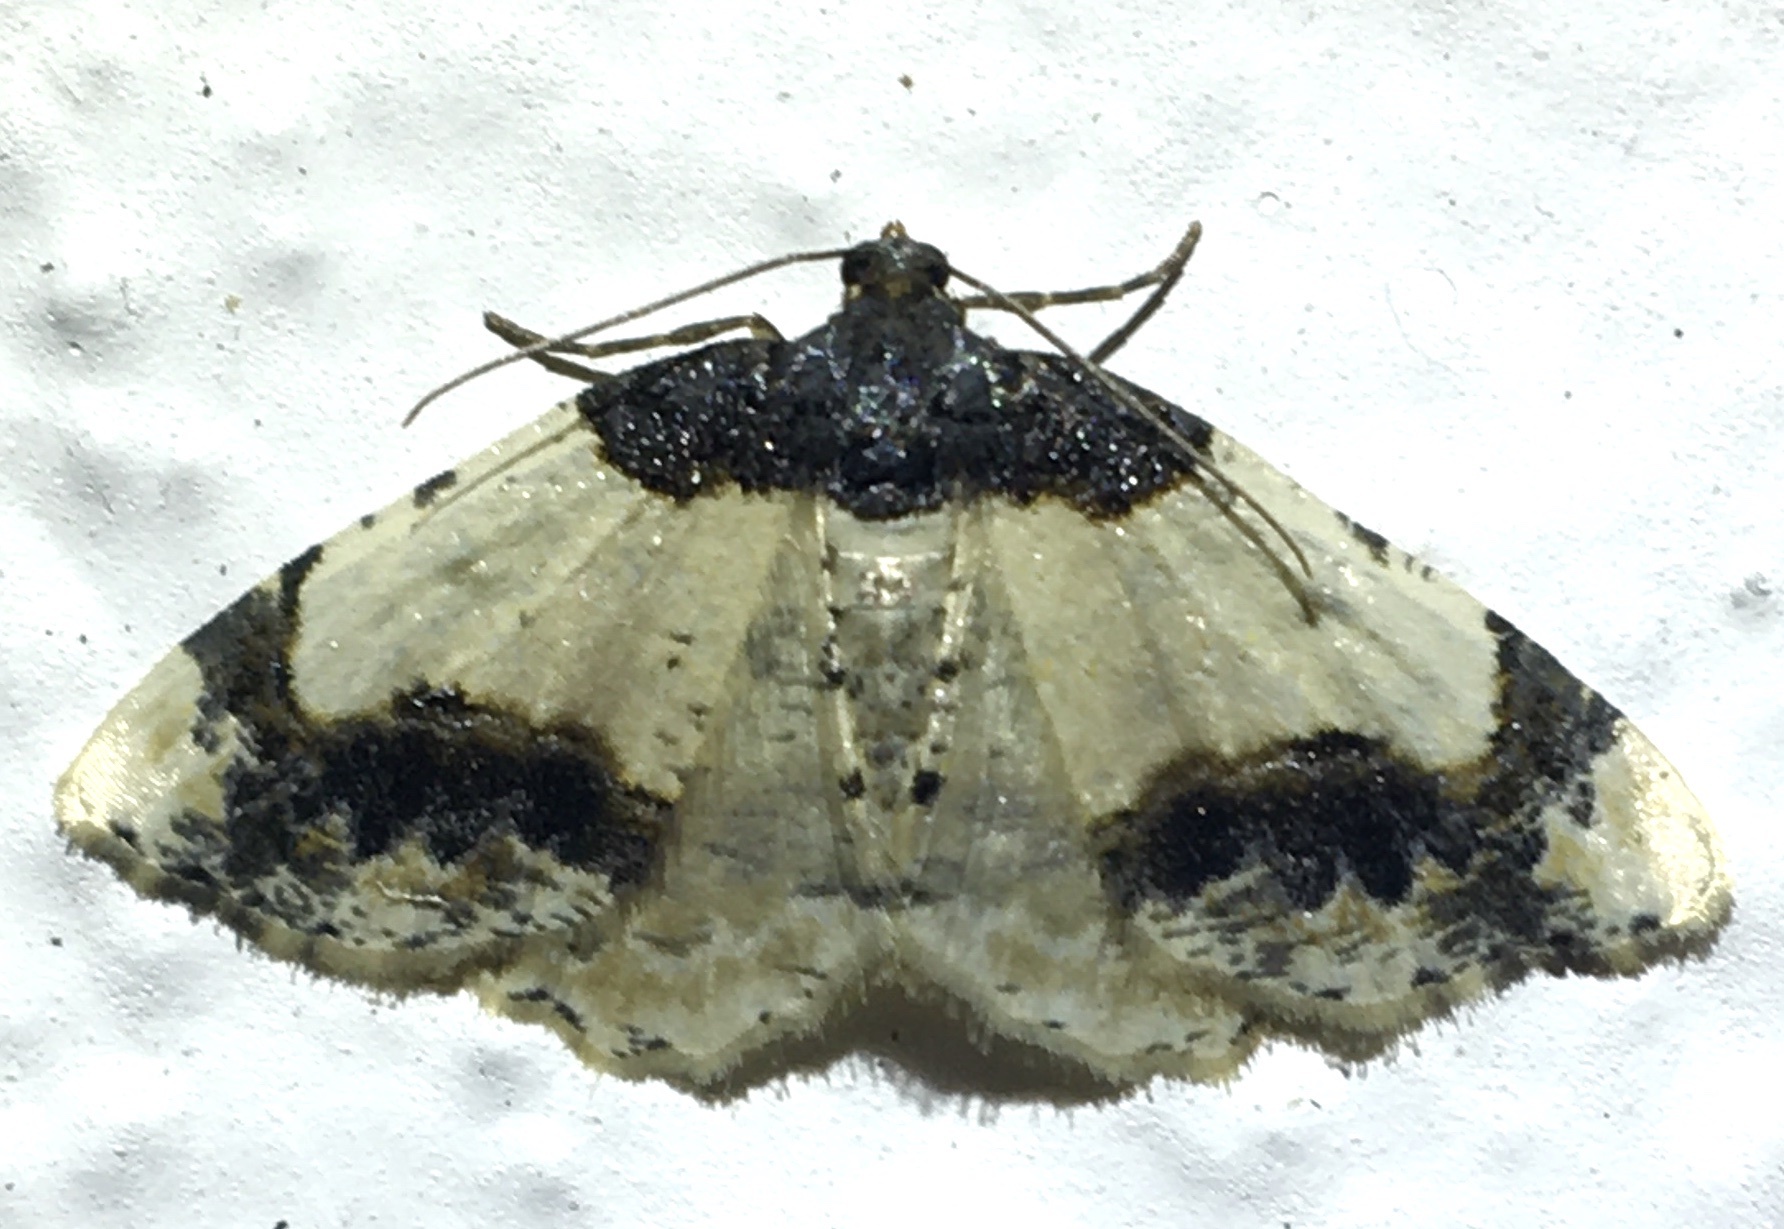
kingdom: Animalia
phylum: Arthropoda
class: Insecta
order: Lepidoptera
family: Geometridae
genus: Ligdia
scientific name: Ligdia adustata
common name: Scorched carpet
